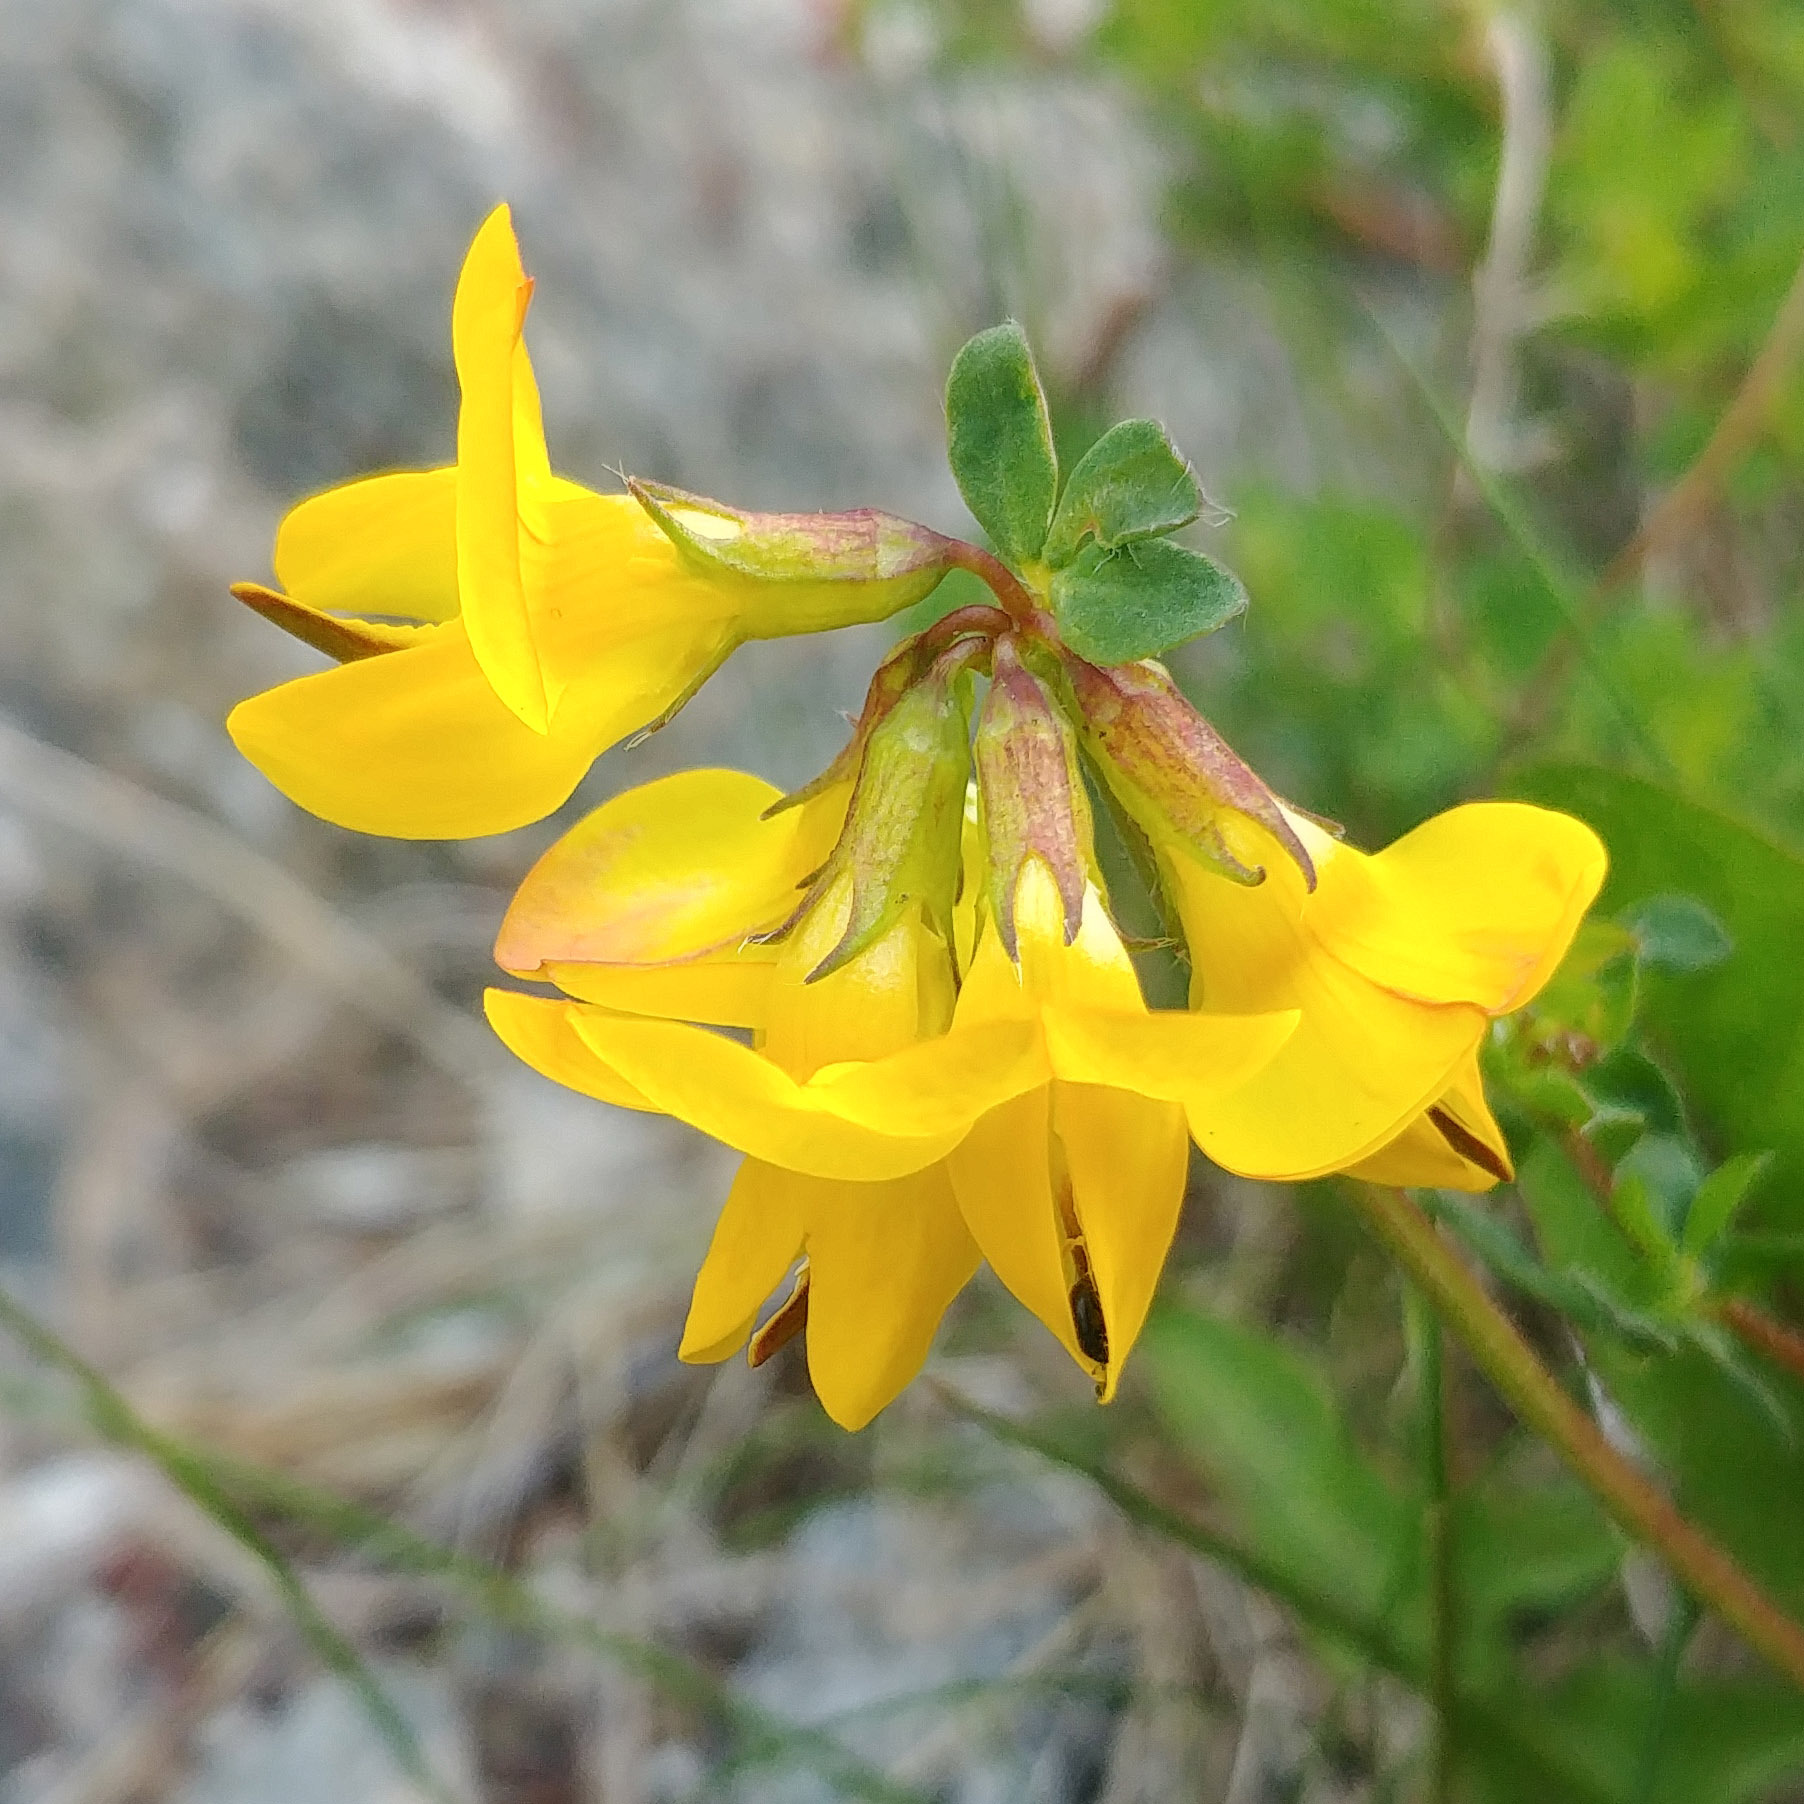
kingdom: Plantae
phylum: Tracheophyta
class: Magnoliopsida
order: Fabales
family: Fabaceae
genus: Lotus
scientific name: Lotus corniculatus
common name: Common bird's-foot-trefoil
